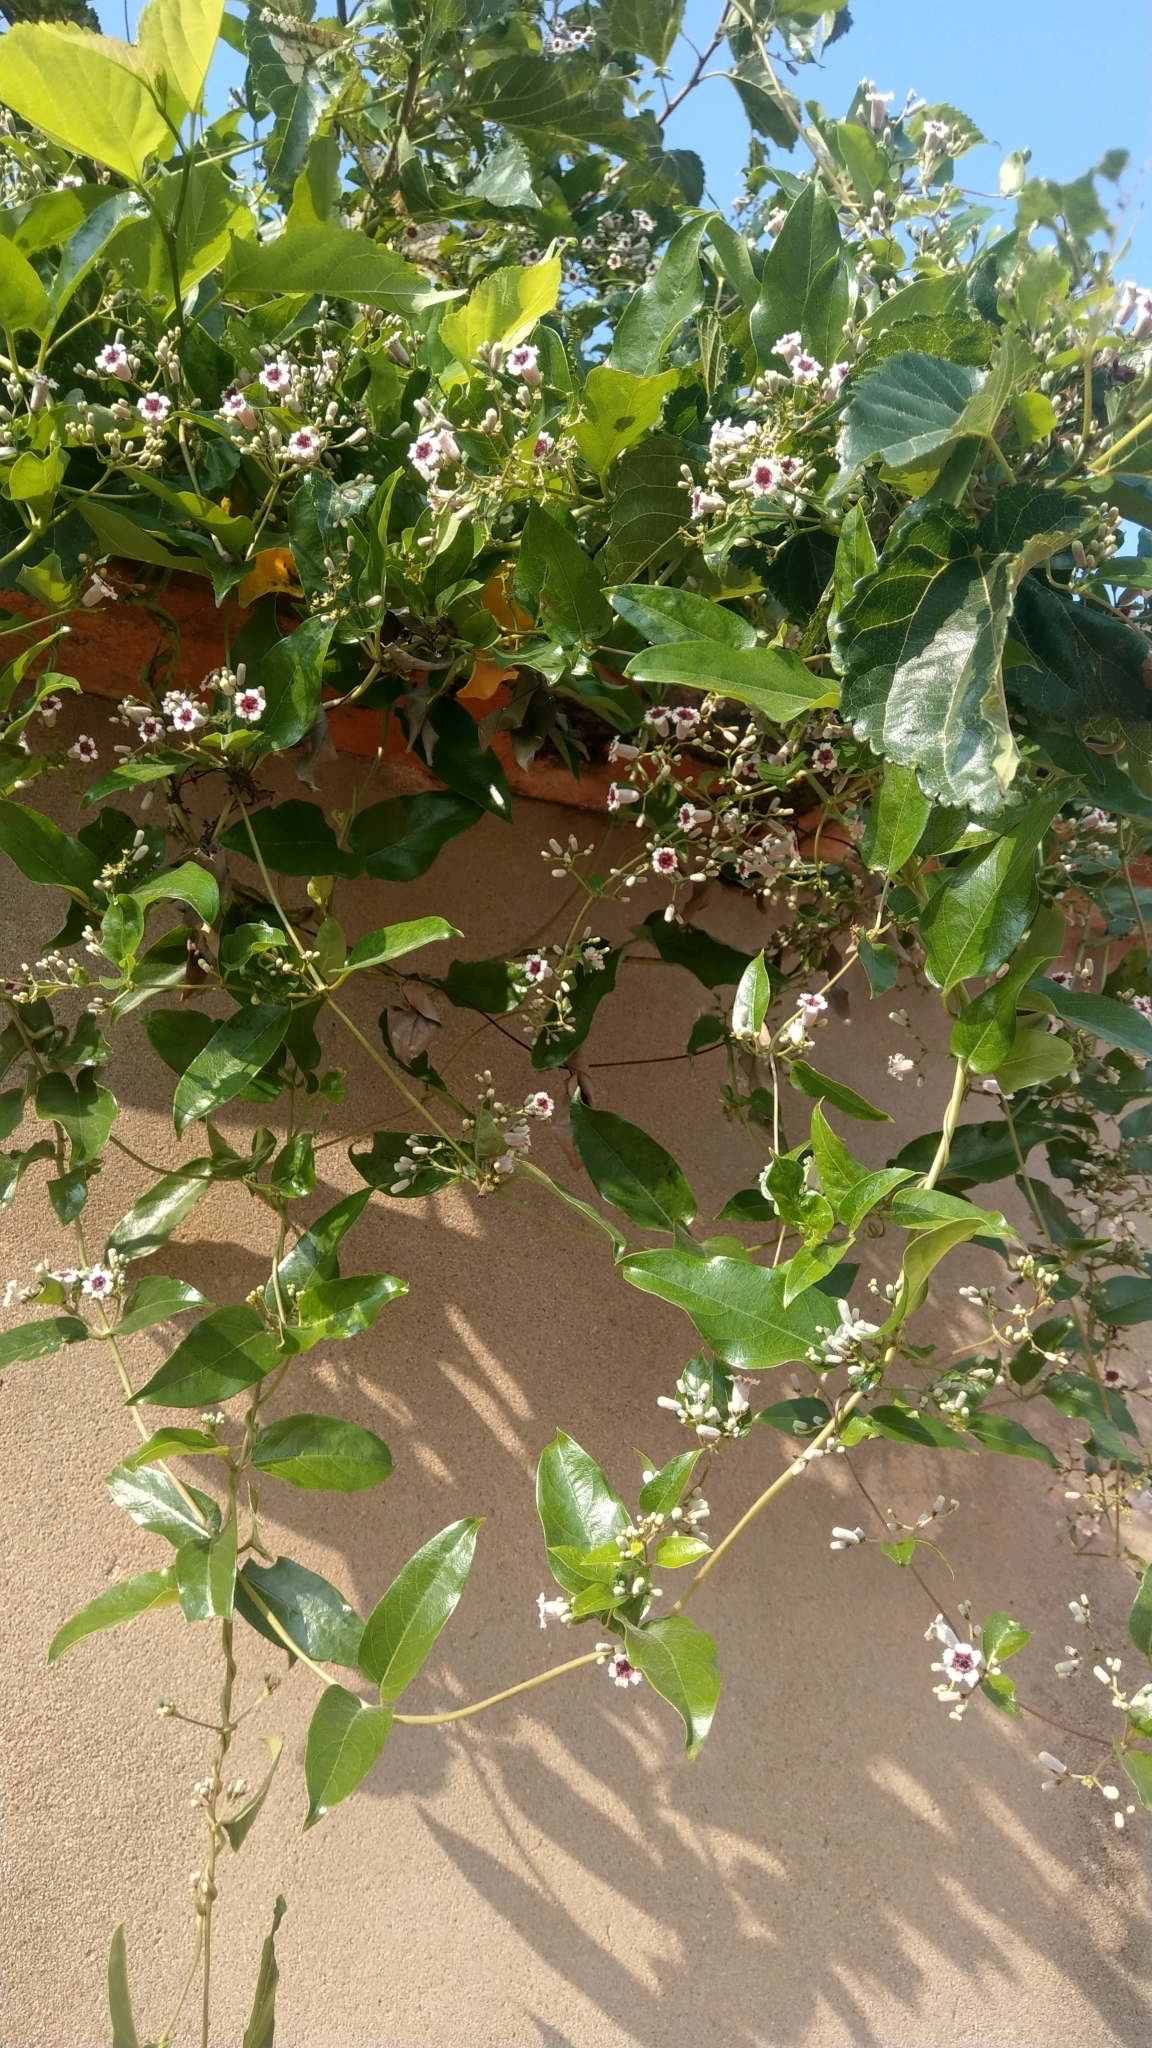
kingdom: Plantae
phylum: Tracheophyta
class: Magnoliopsida
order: Gentianales
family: Rubiaceae
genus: Paederia
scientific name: Paederia foetida
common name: Stinkvine
